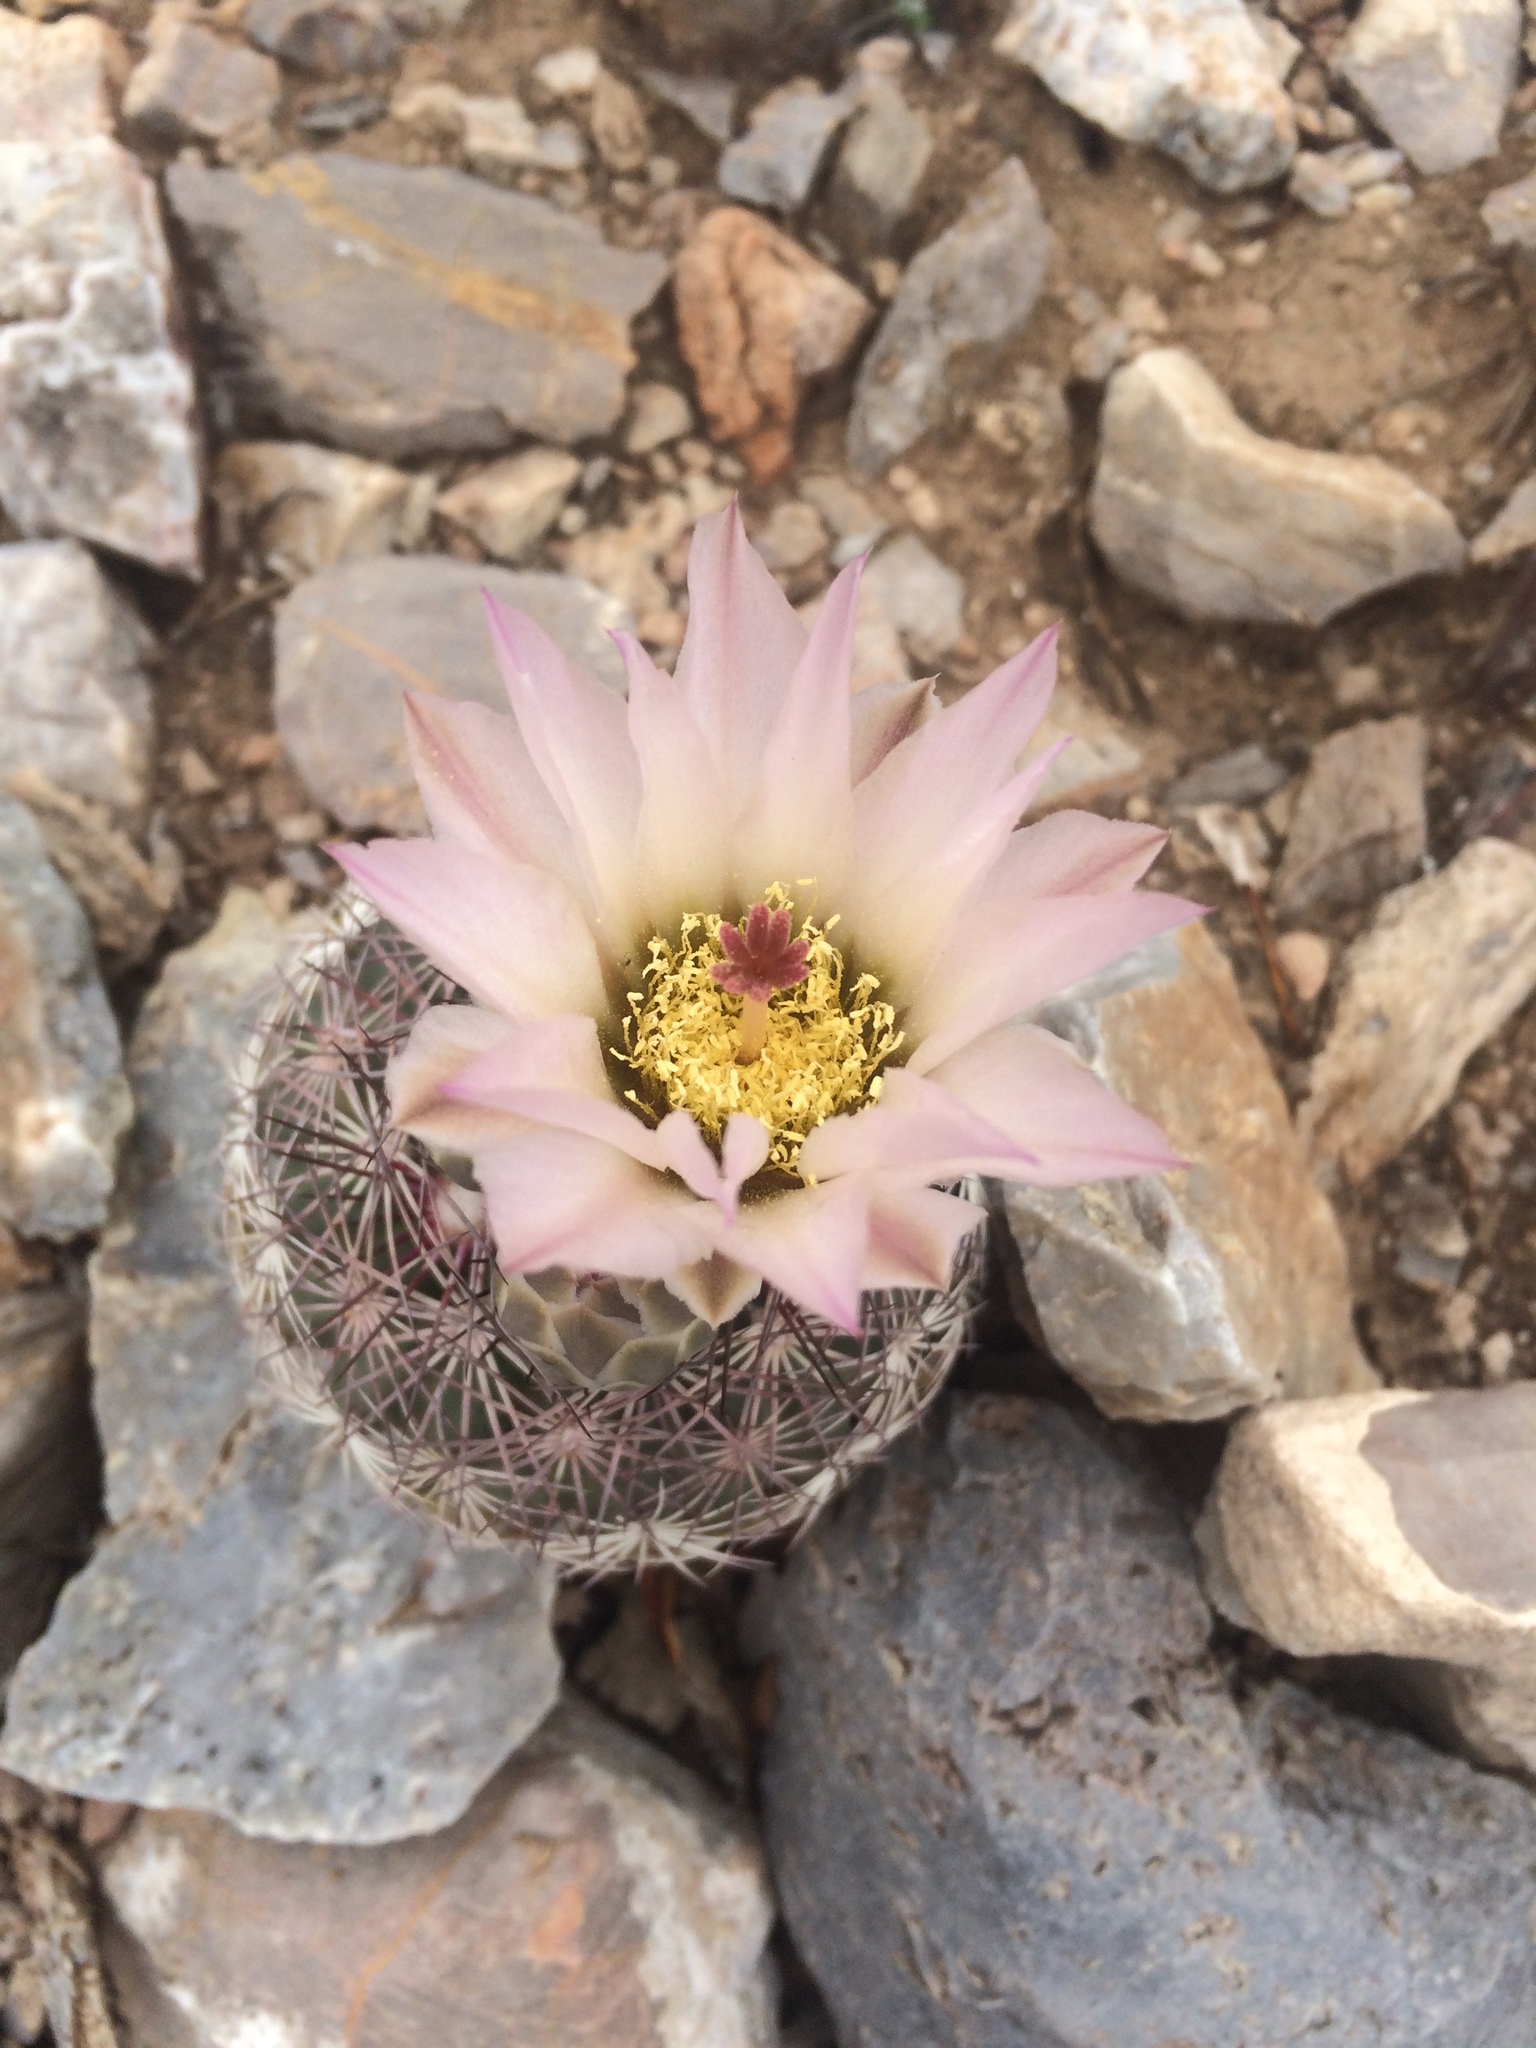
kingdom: Plantae
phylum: Tracheophyta
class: Magnoliopsida
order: Caryophyllales
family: Cactaceae
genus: Sclerocactus
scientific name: Sclerocactus johnsonii
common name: Eight-spine fishhook cactus
